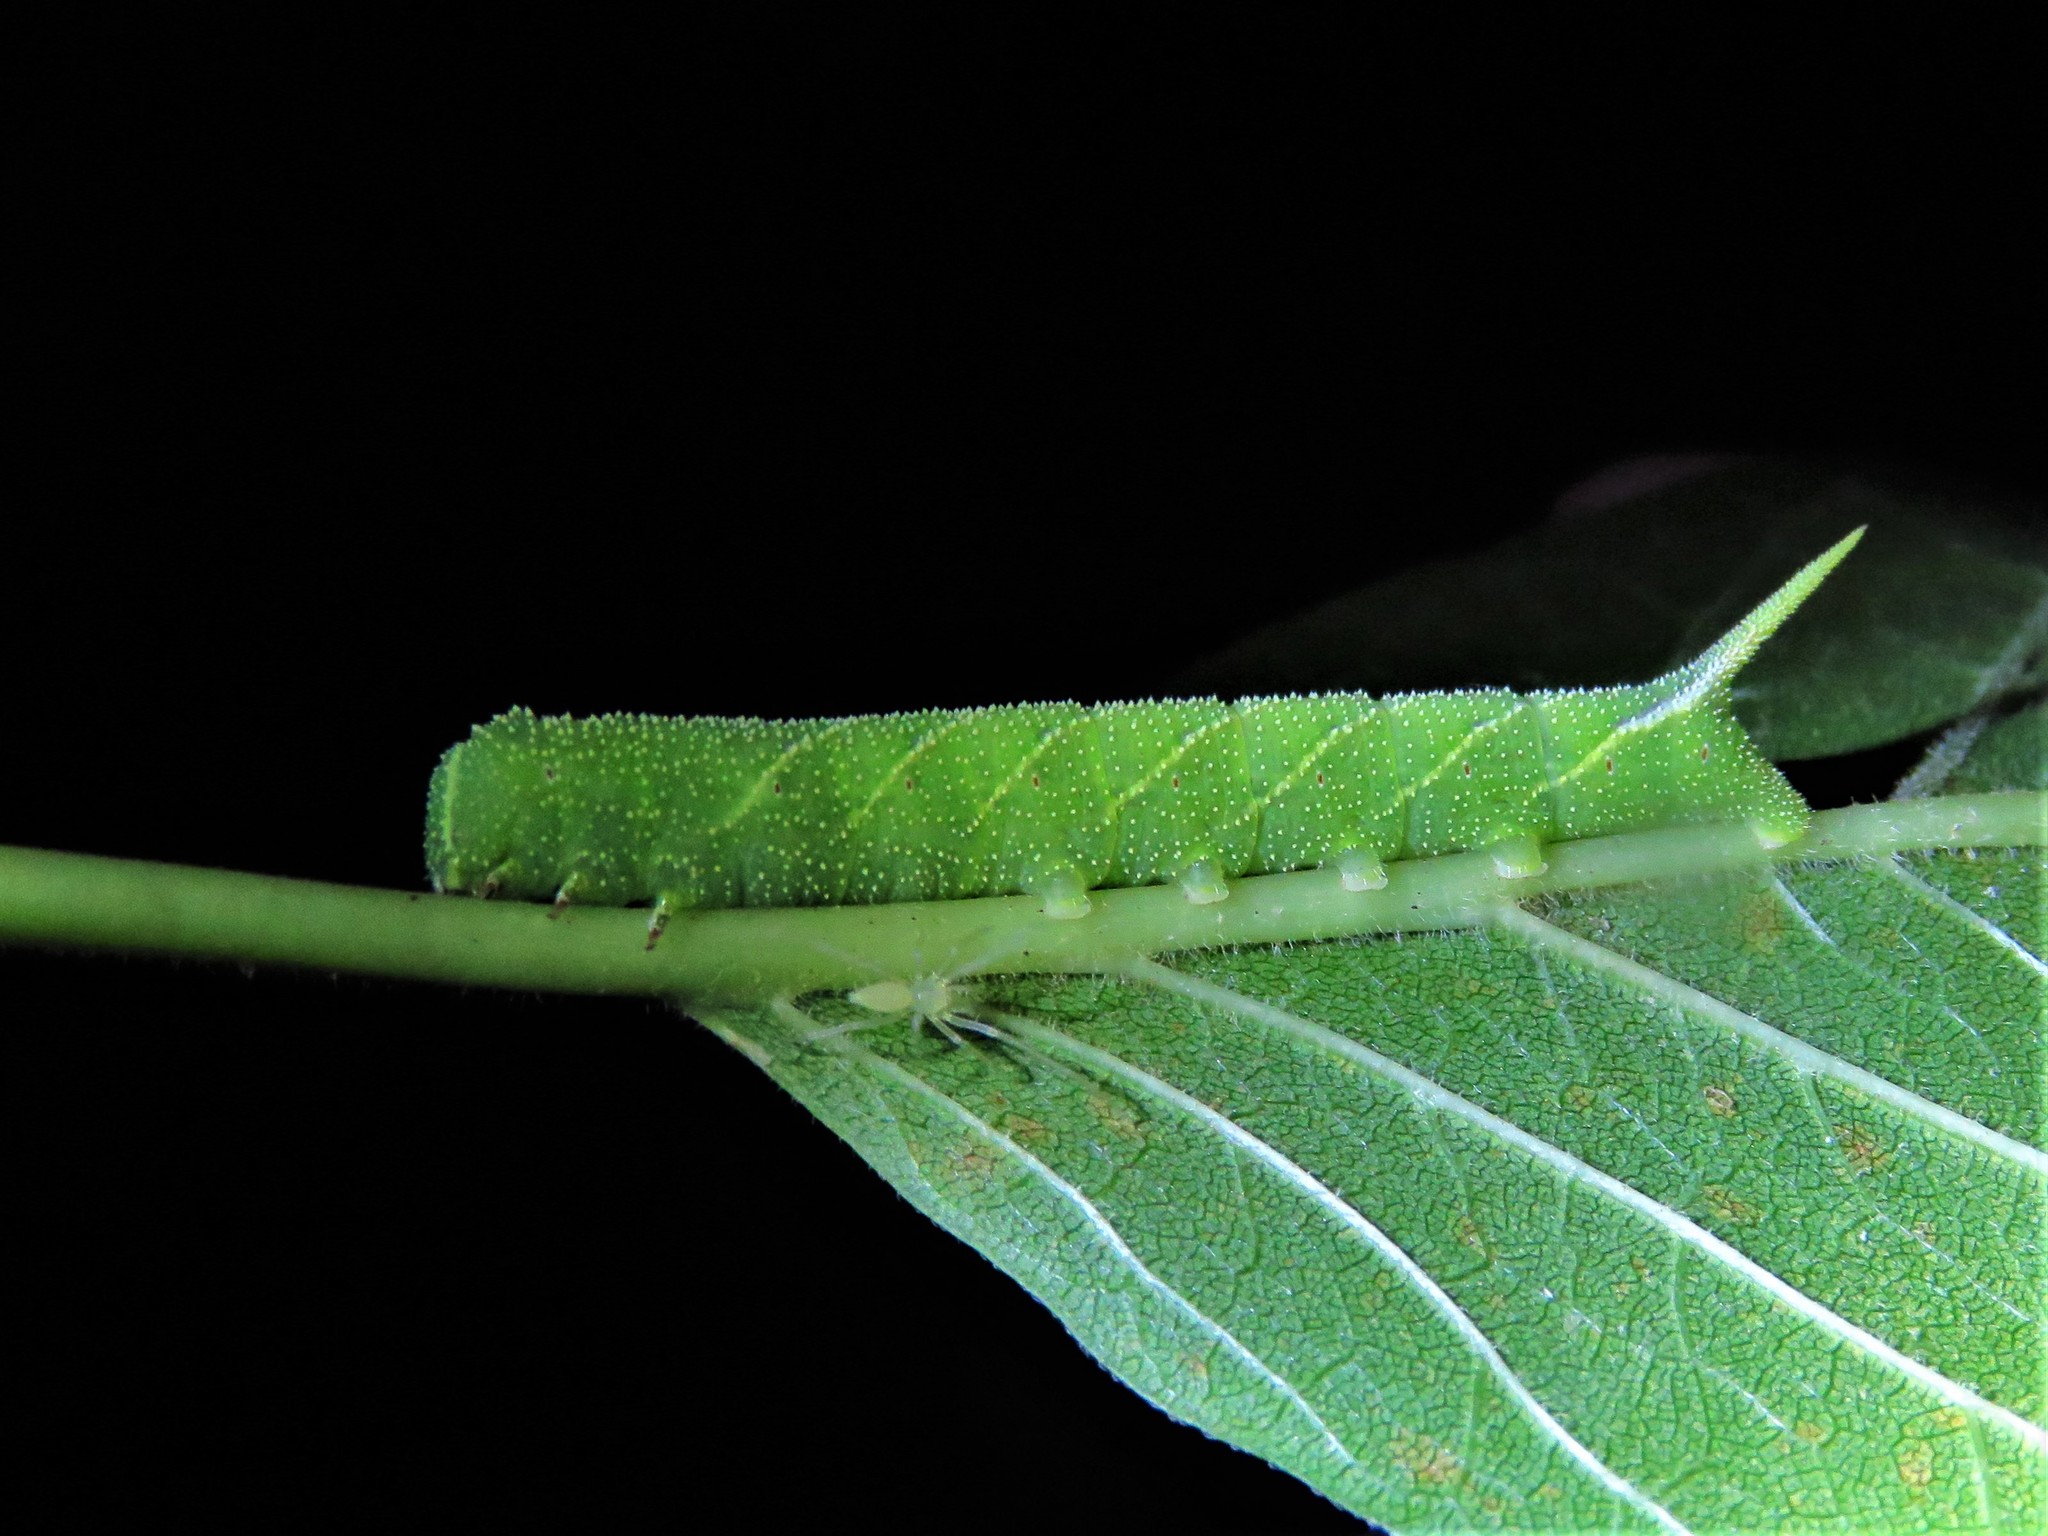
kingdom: Animalia
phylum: Arthropoda
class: Insecta
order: Lepidoptera
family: Sphingidae
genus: Ceratomia
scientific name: Ceratomia hageni
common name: Hagen's sphinx
